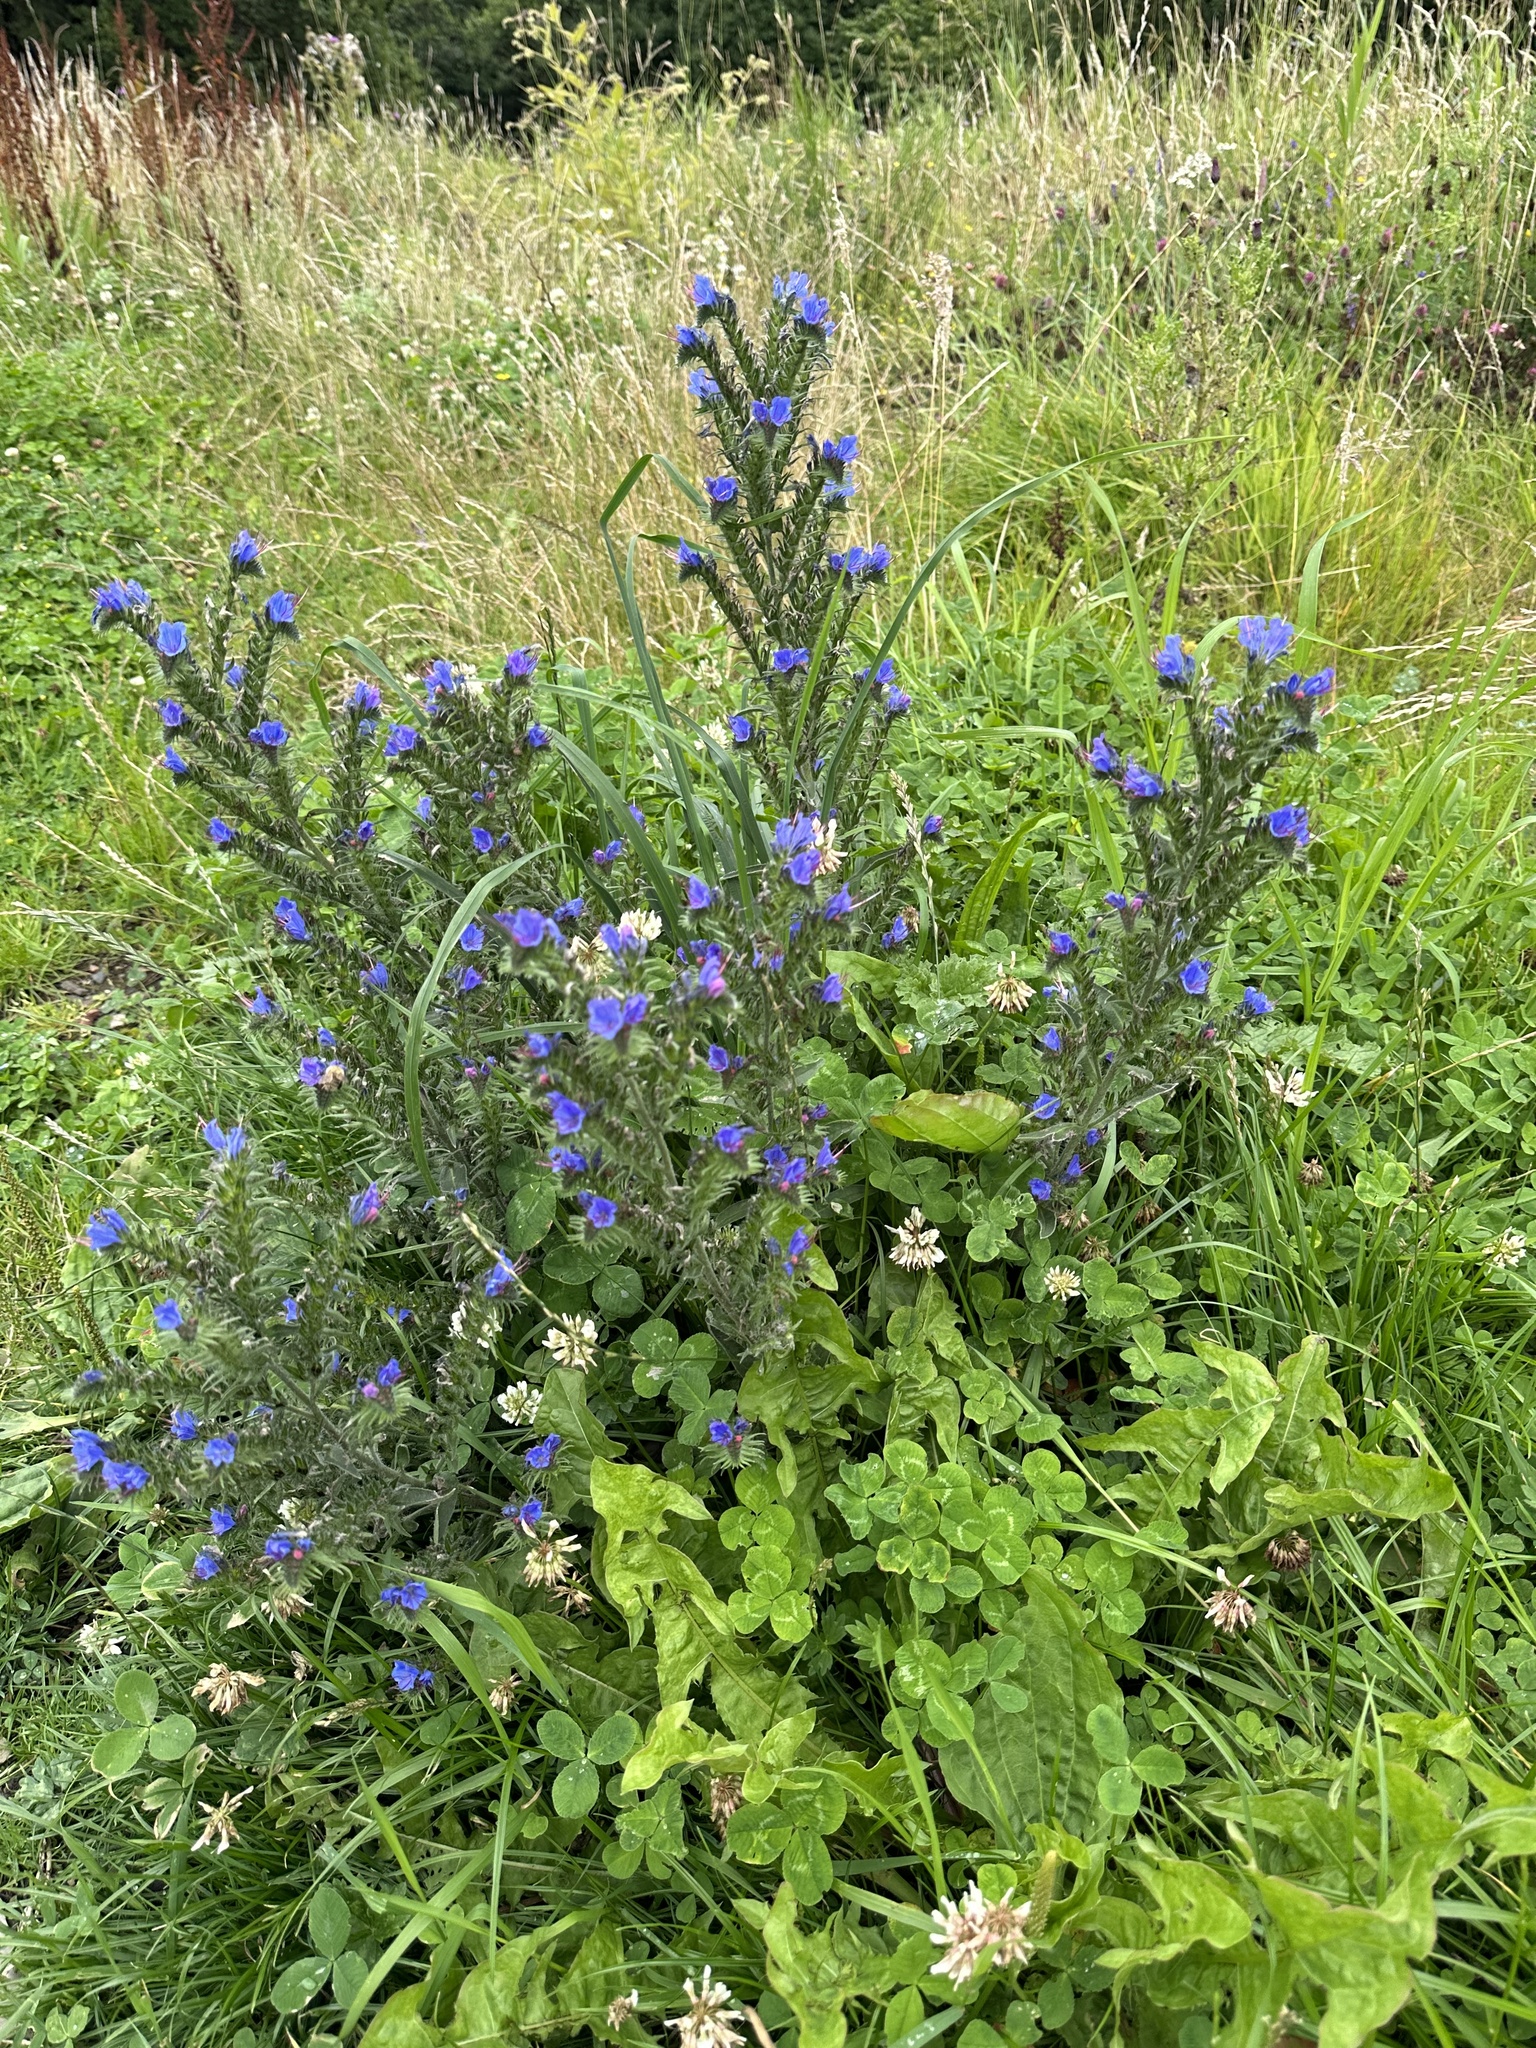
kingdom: Plantae
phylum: Tracheophyta
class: Magnoliopsida
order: Boraginales
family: Boraginaceae
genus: Echium
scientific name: Echium vulgare
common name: Common viper's bugloss
